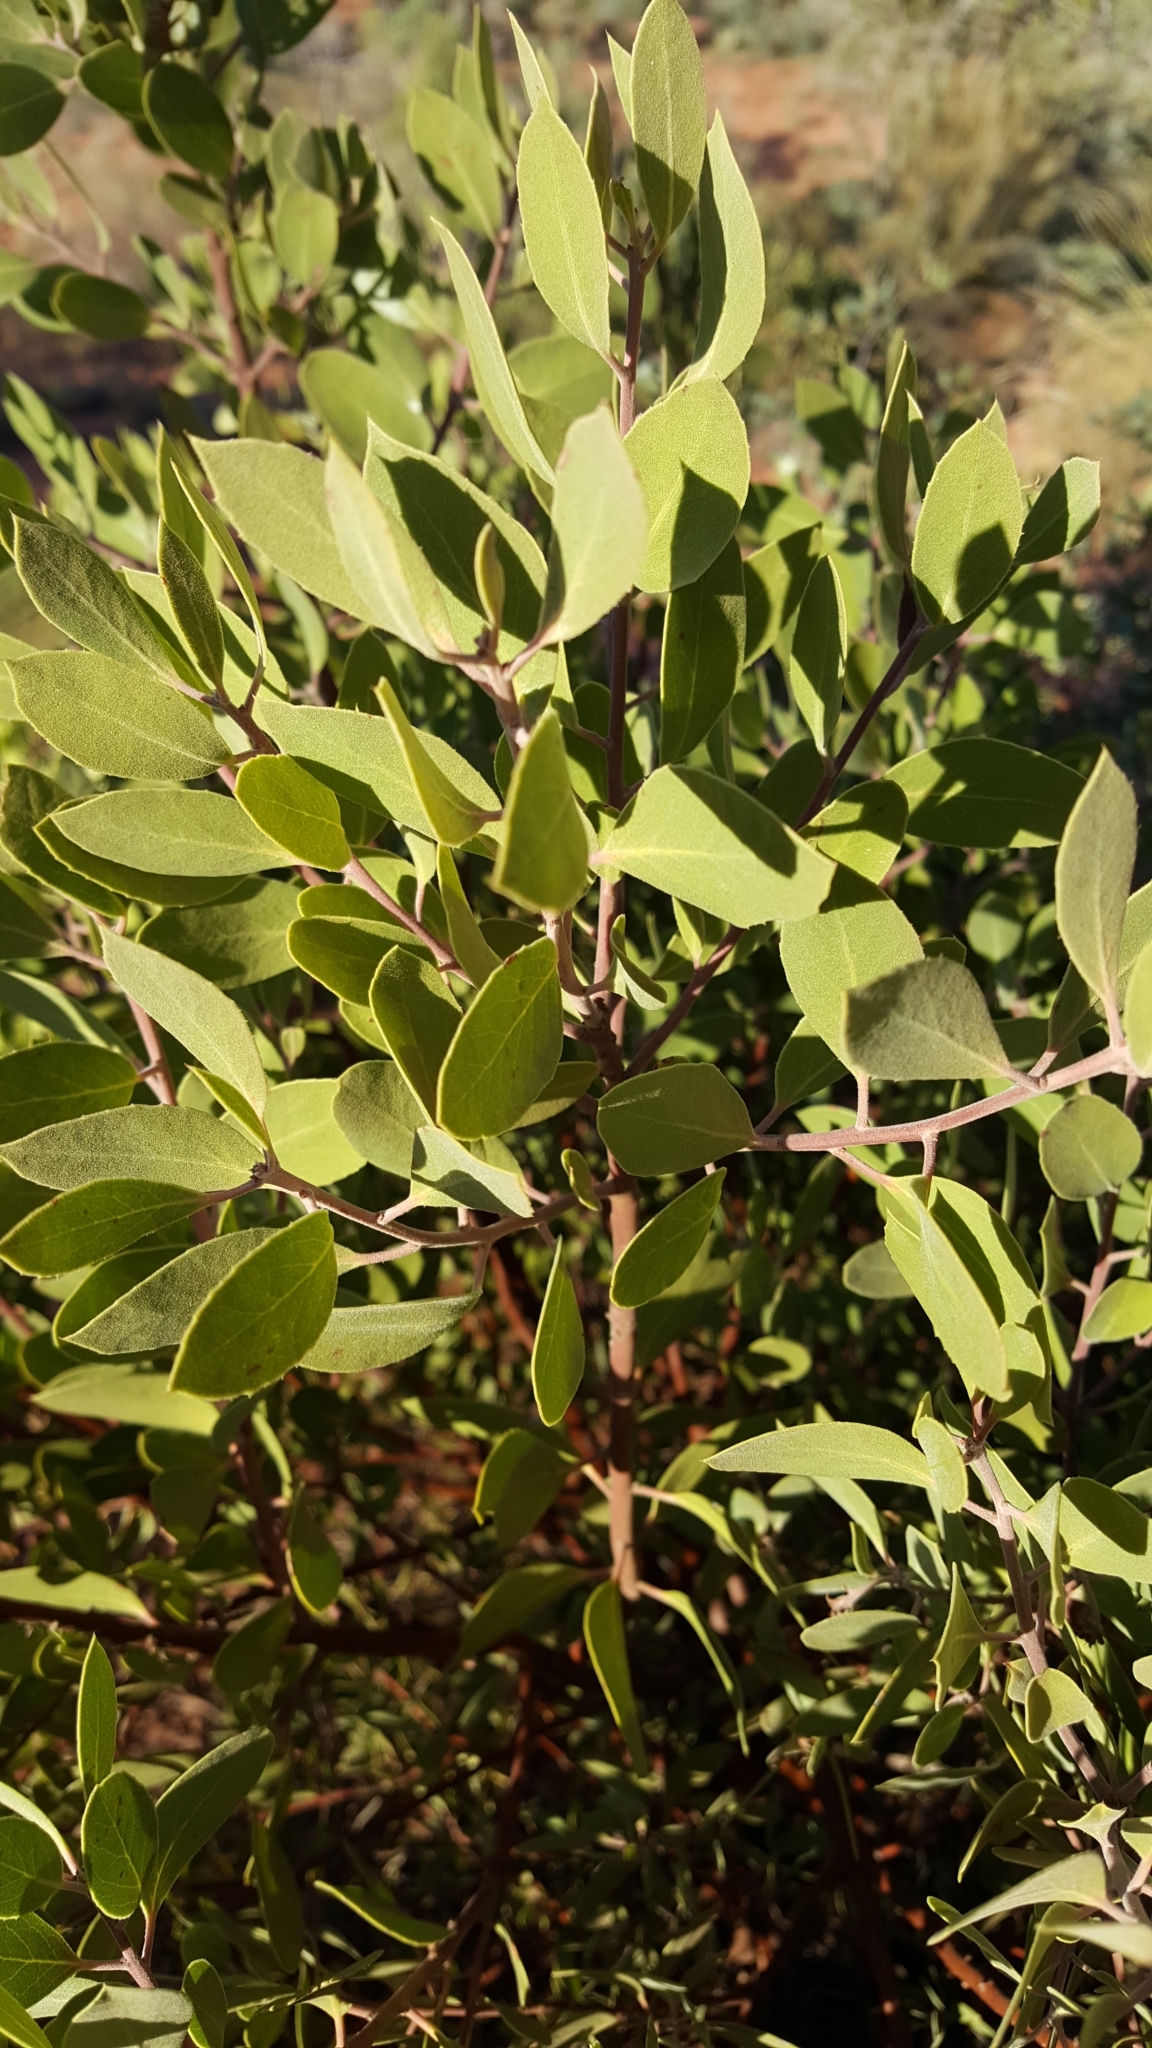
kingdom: Plantae
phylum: Tracheophyta
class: Magnoliopsida
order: Ericales
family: Ericaceae
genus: Arctostaphylos
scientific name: Arctostaphylos pungens
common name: Mexican manzanita
